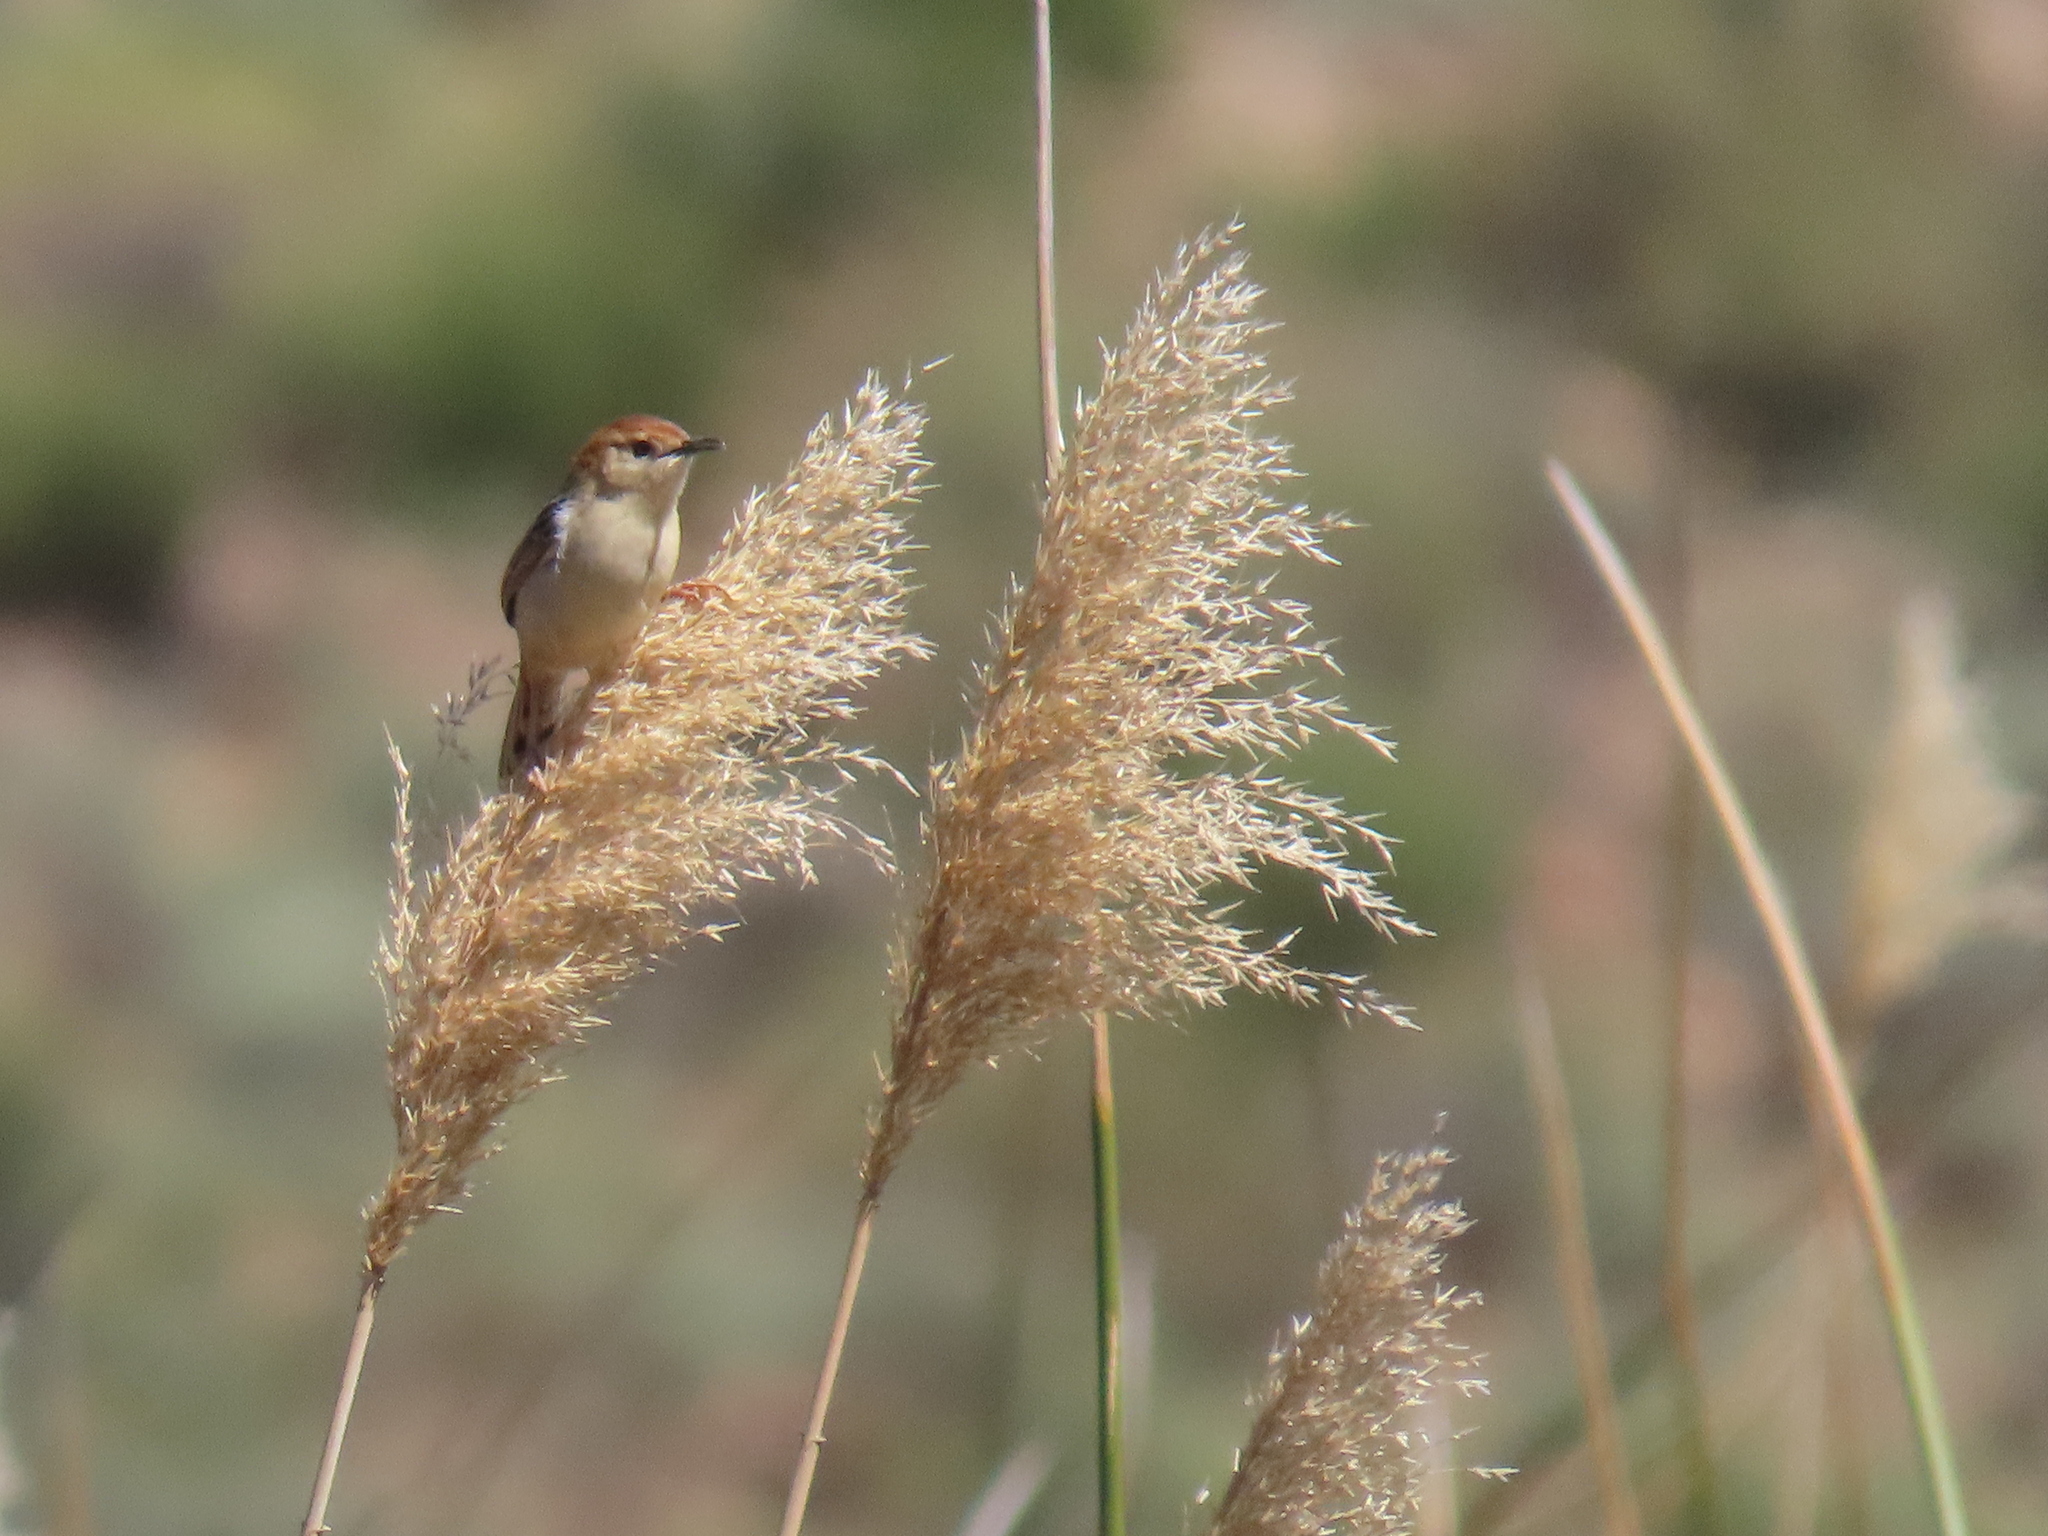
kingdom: Animalia
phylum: Chordata
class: Aves
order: Passeriformes
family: Cisticolidae
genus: Cisticola
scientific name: Cisticola tinniens
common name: Levaillant's cisticola
